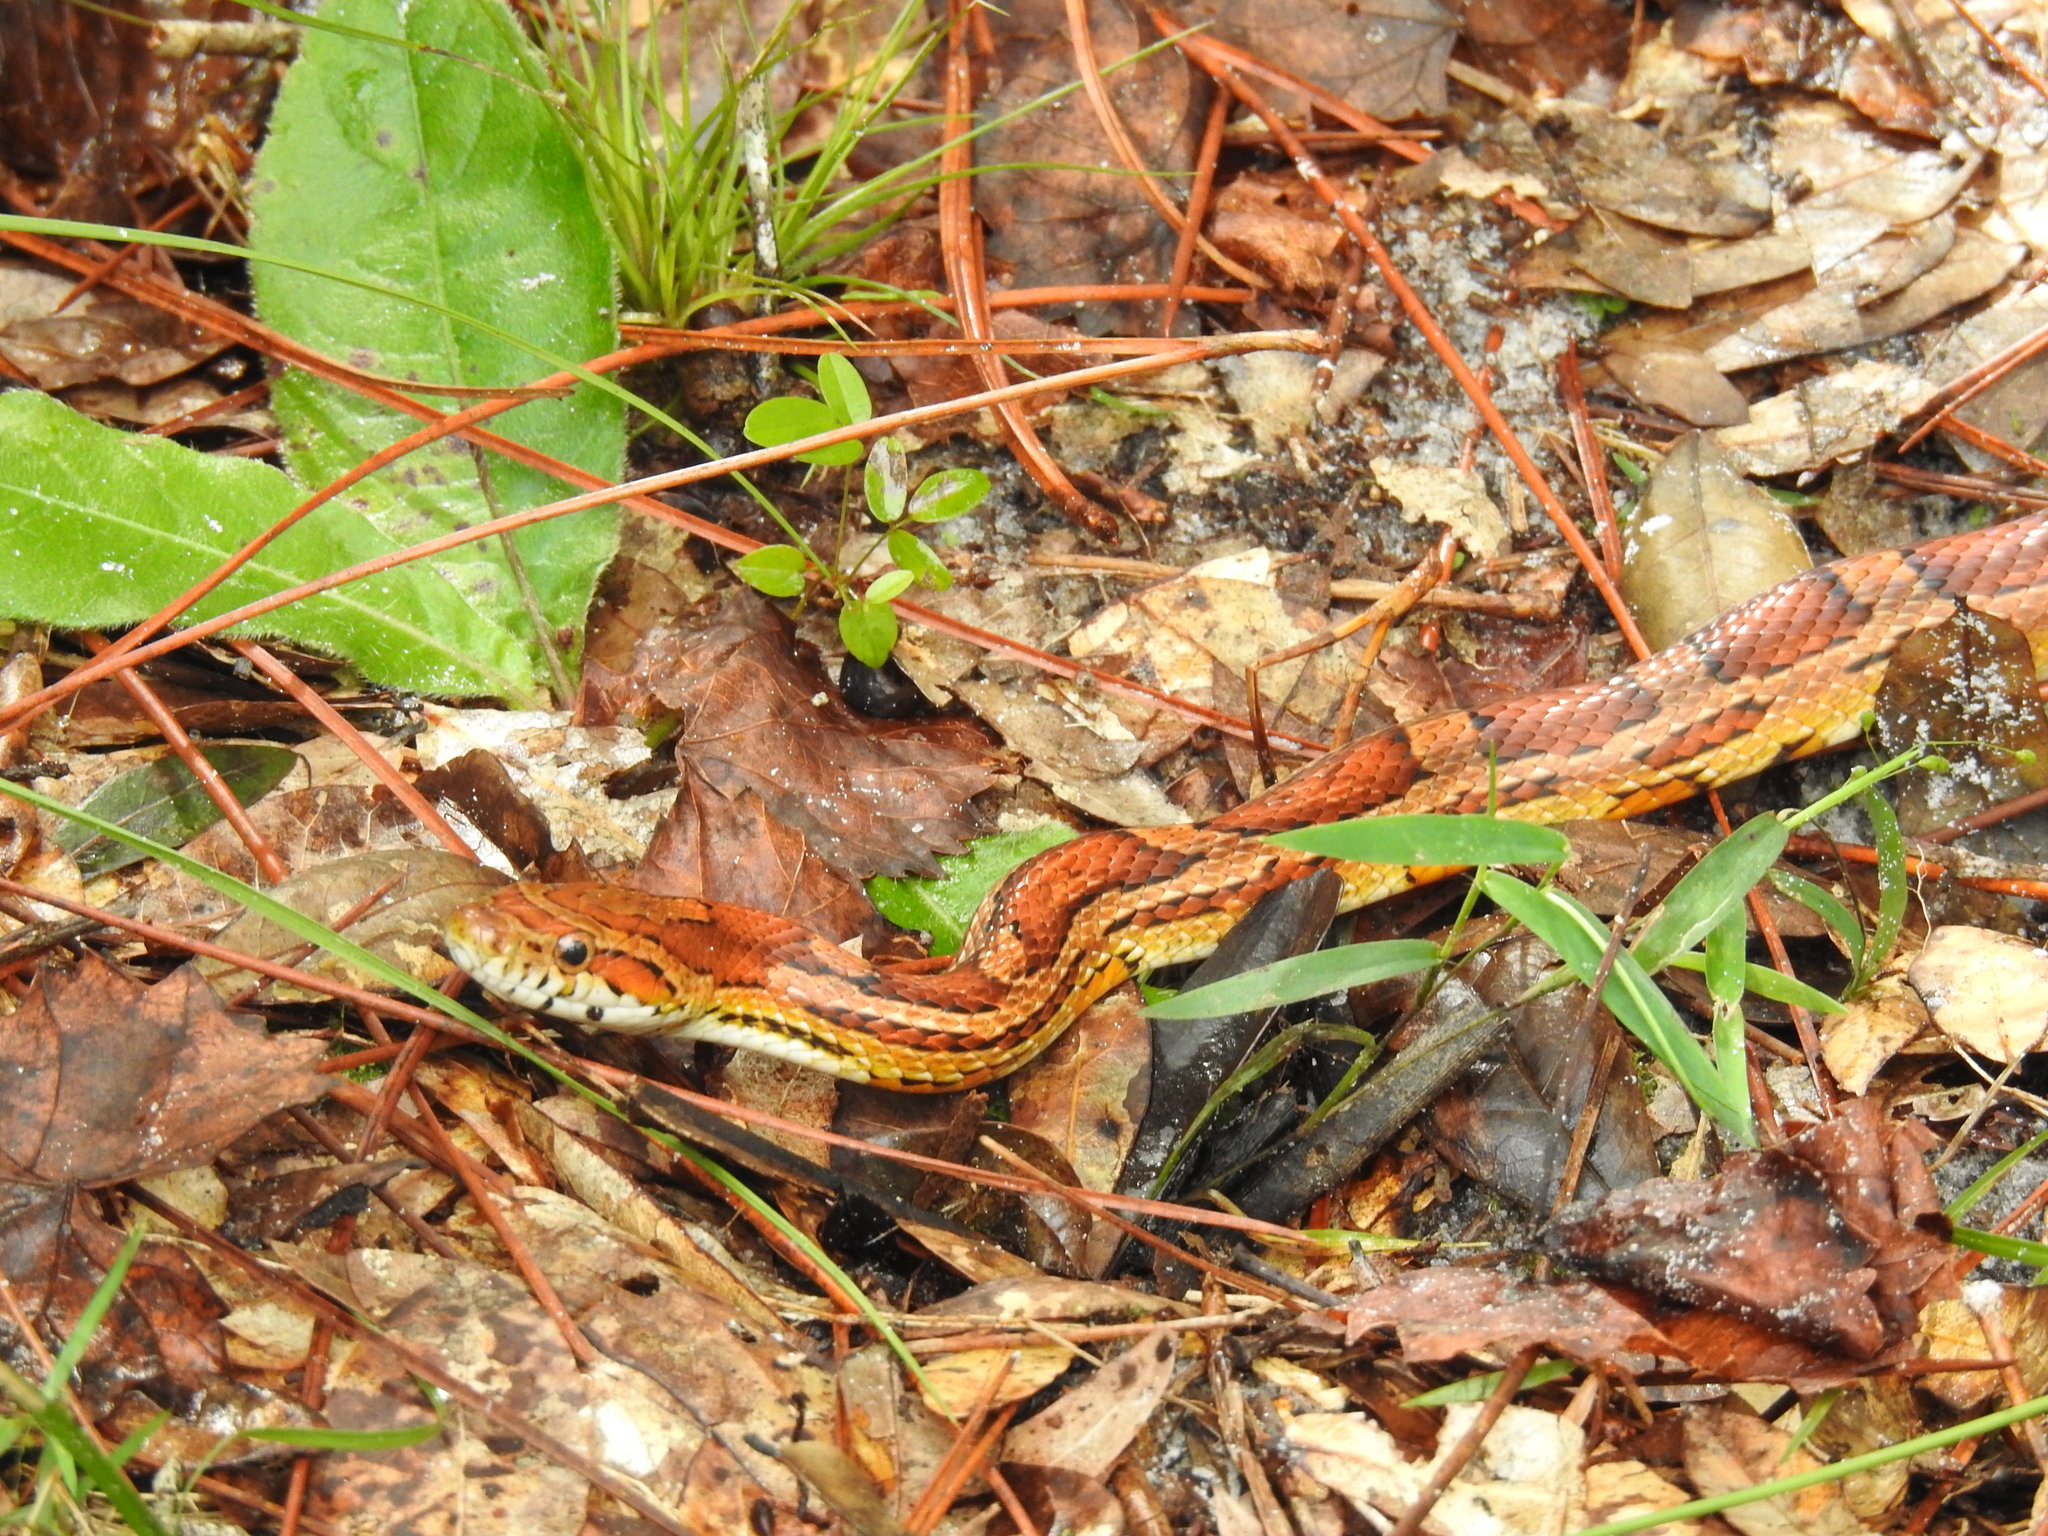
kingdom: Animalia
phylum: Chordata
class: Squamata
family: Colubridae
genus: Pantherophis
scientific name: Pantherophis guttatus
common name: Red cornsnake
